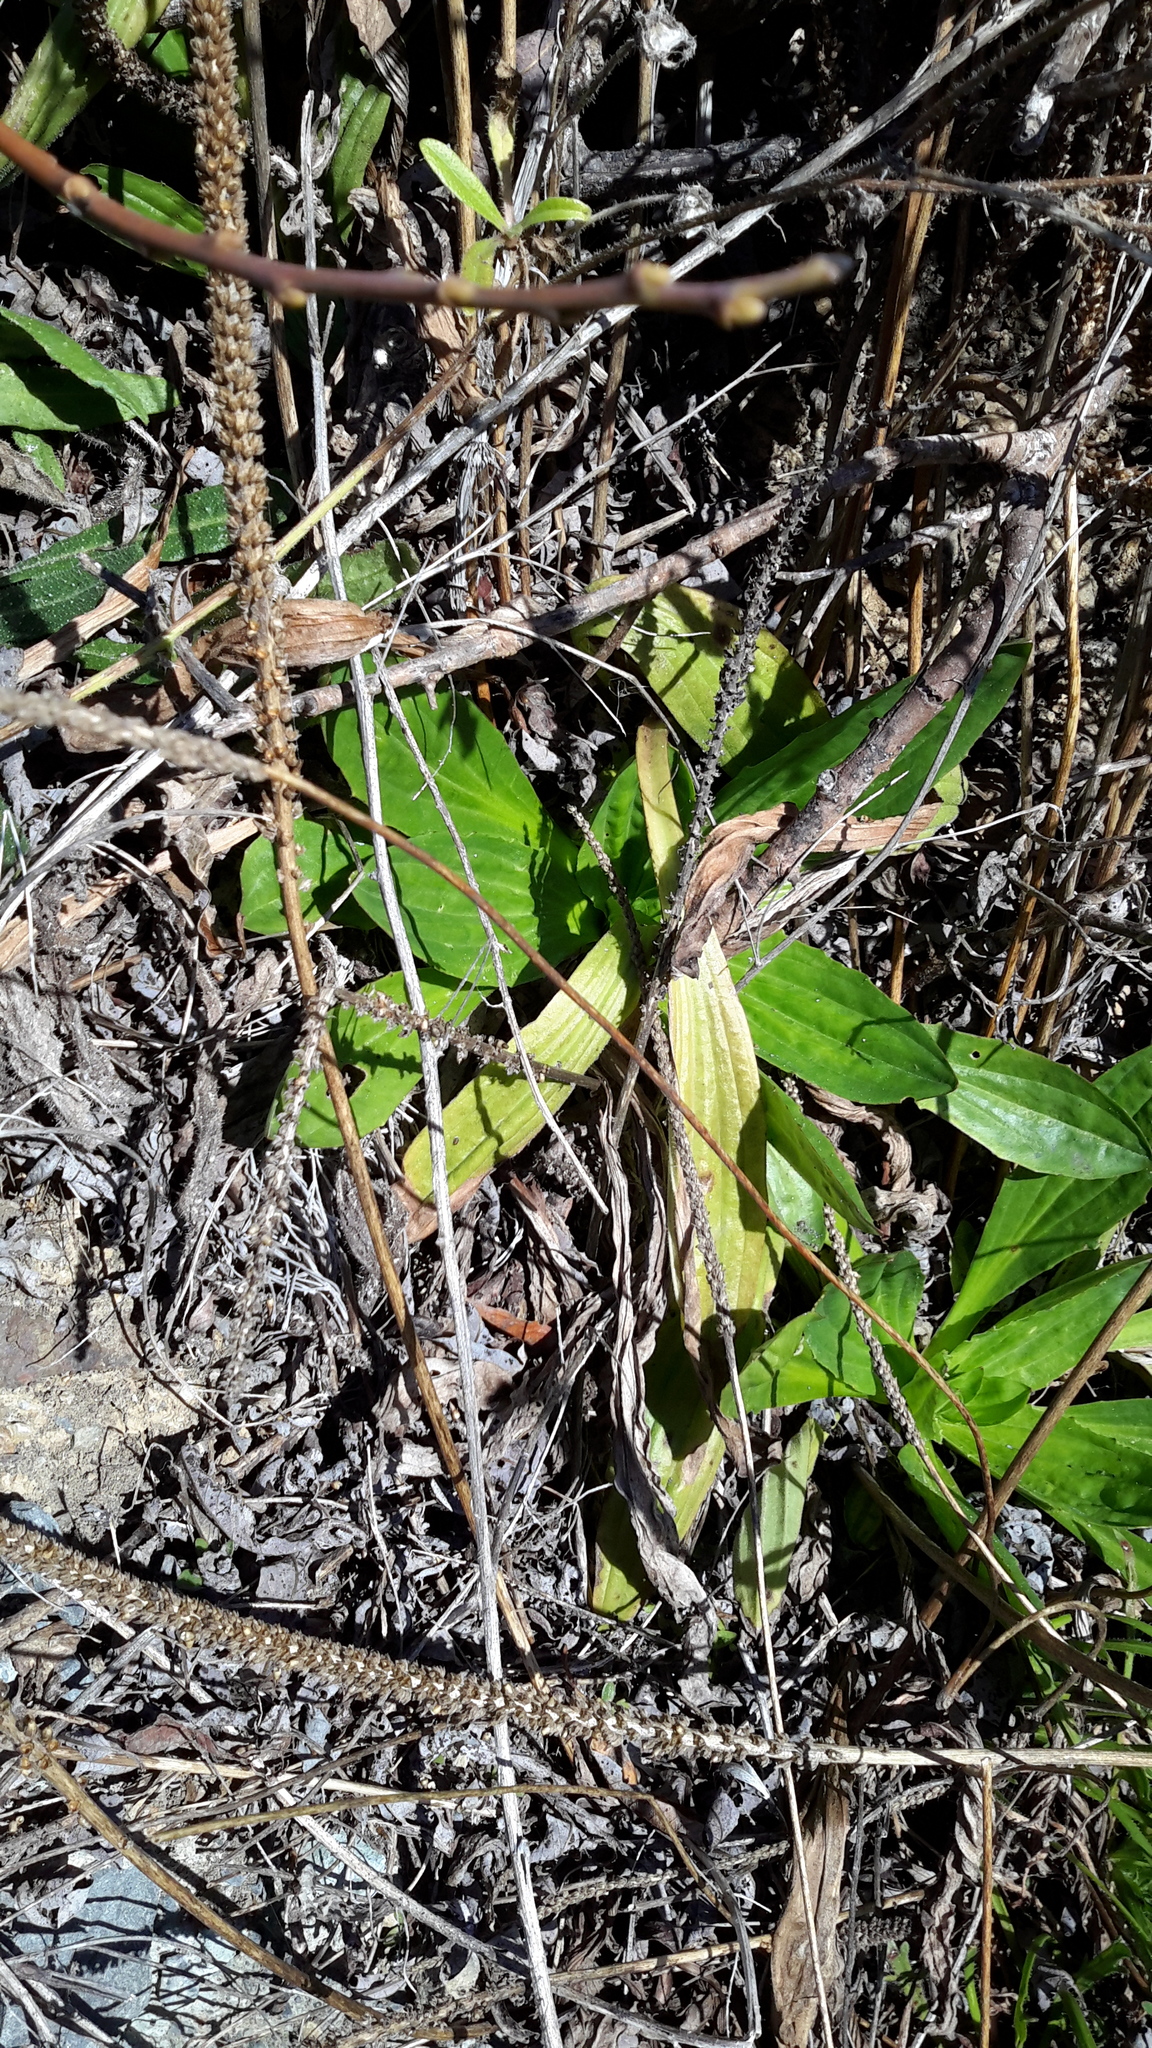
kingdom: Plantae
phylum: Tracheophyta
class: Magnoliopsida
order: Lamiales
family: Plantaginaceae
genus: Plantago
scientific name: Plantago subnuda
